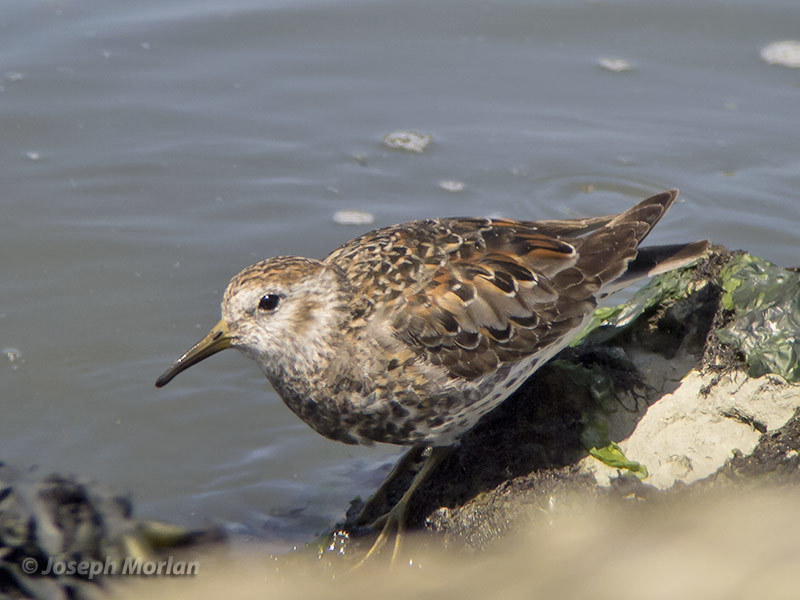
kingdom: Animalia
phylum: Chordata
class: Aves
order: Charadriiformes
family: Scolopacidae
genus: Calidris
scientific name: Calidris ptilocnemis
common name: Rock sandpiper
